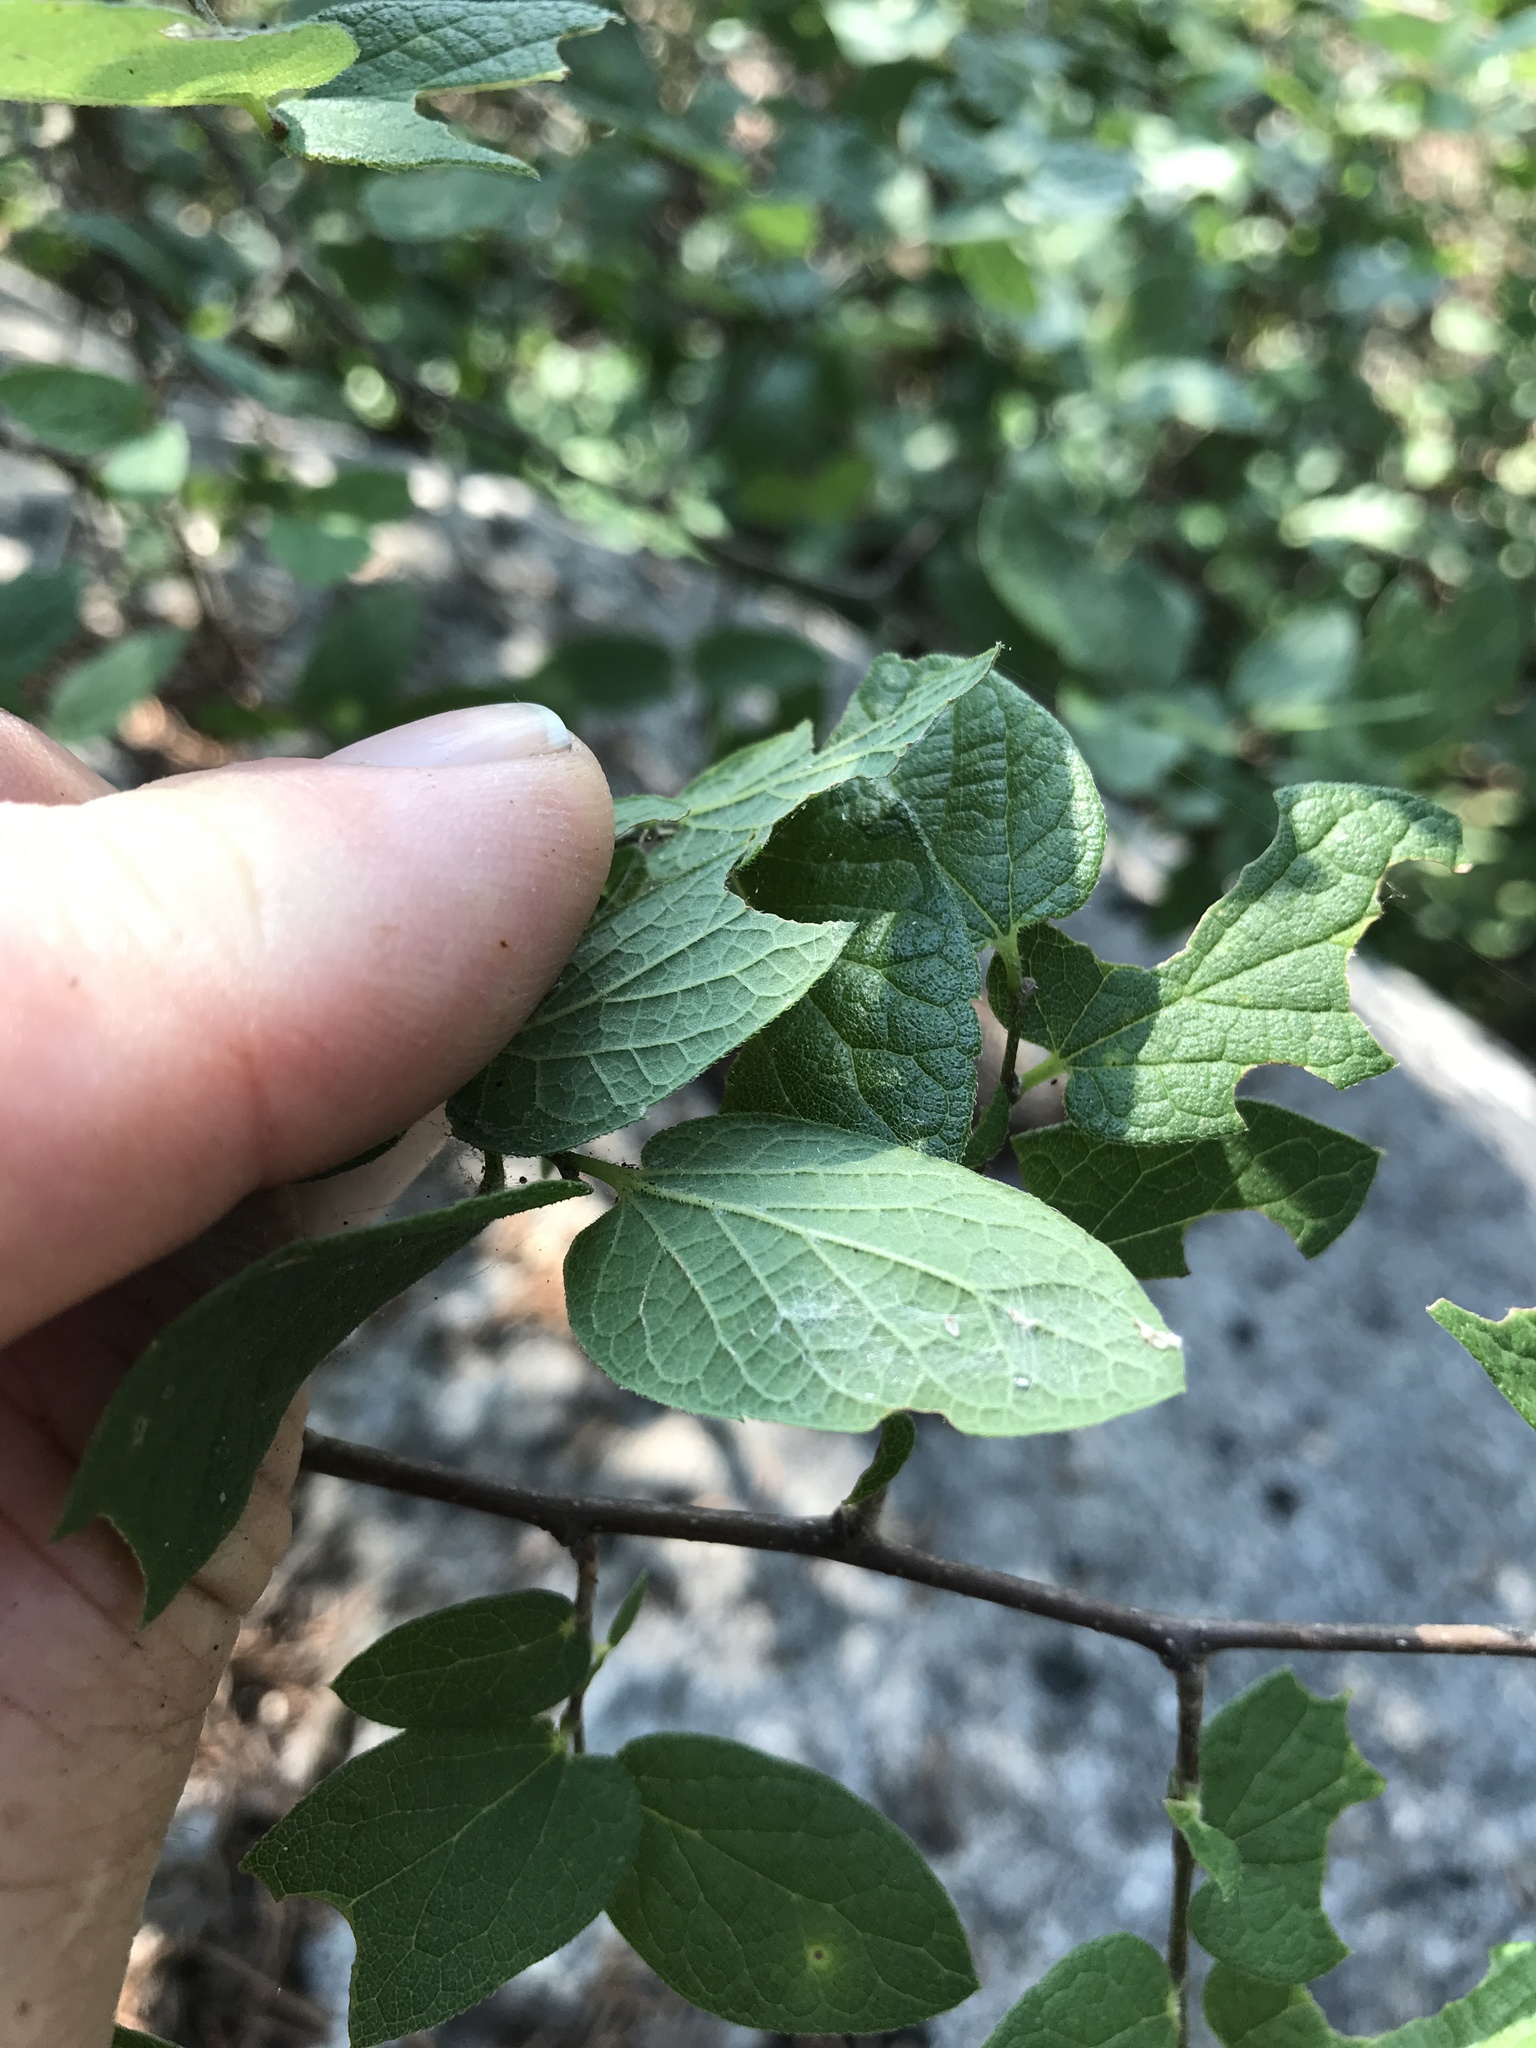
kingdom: Plantae
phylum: Tracheophyta
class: Magnoliopsida
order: Rosales
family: Cannabaceae
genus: Celtis
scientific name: Celtis reticulata
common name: Netleaf hackberry
